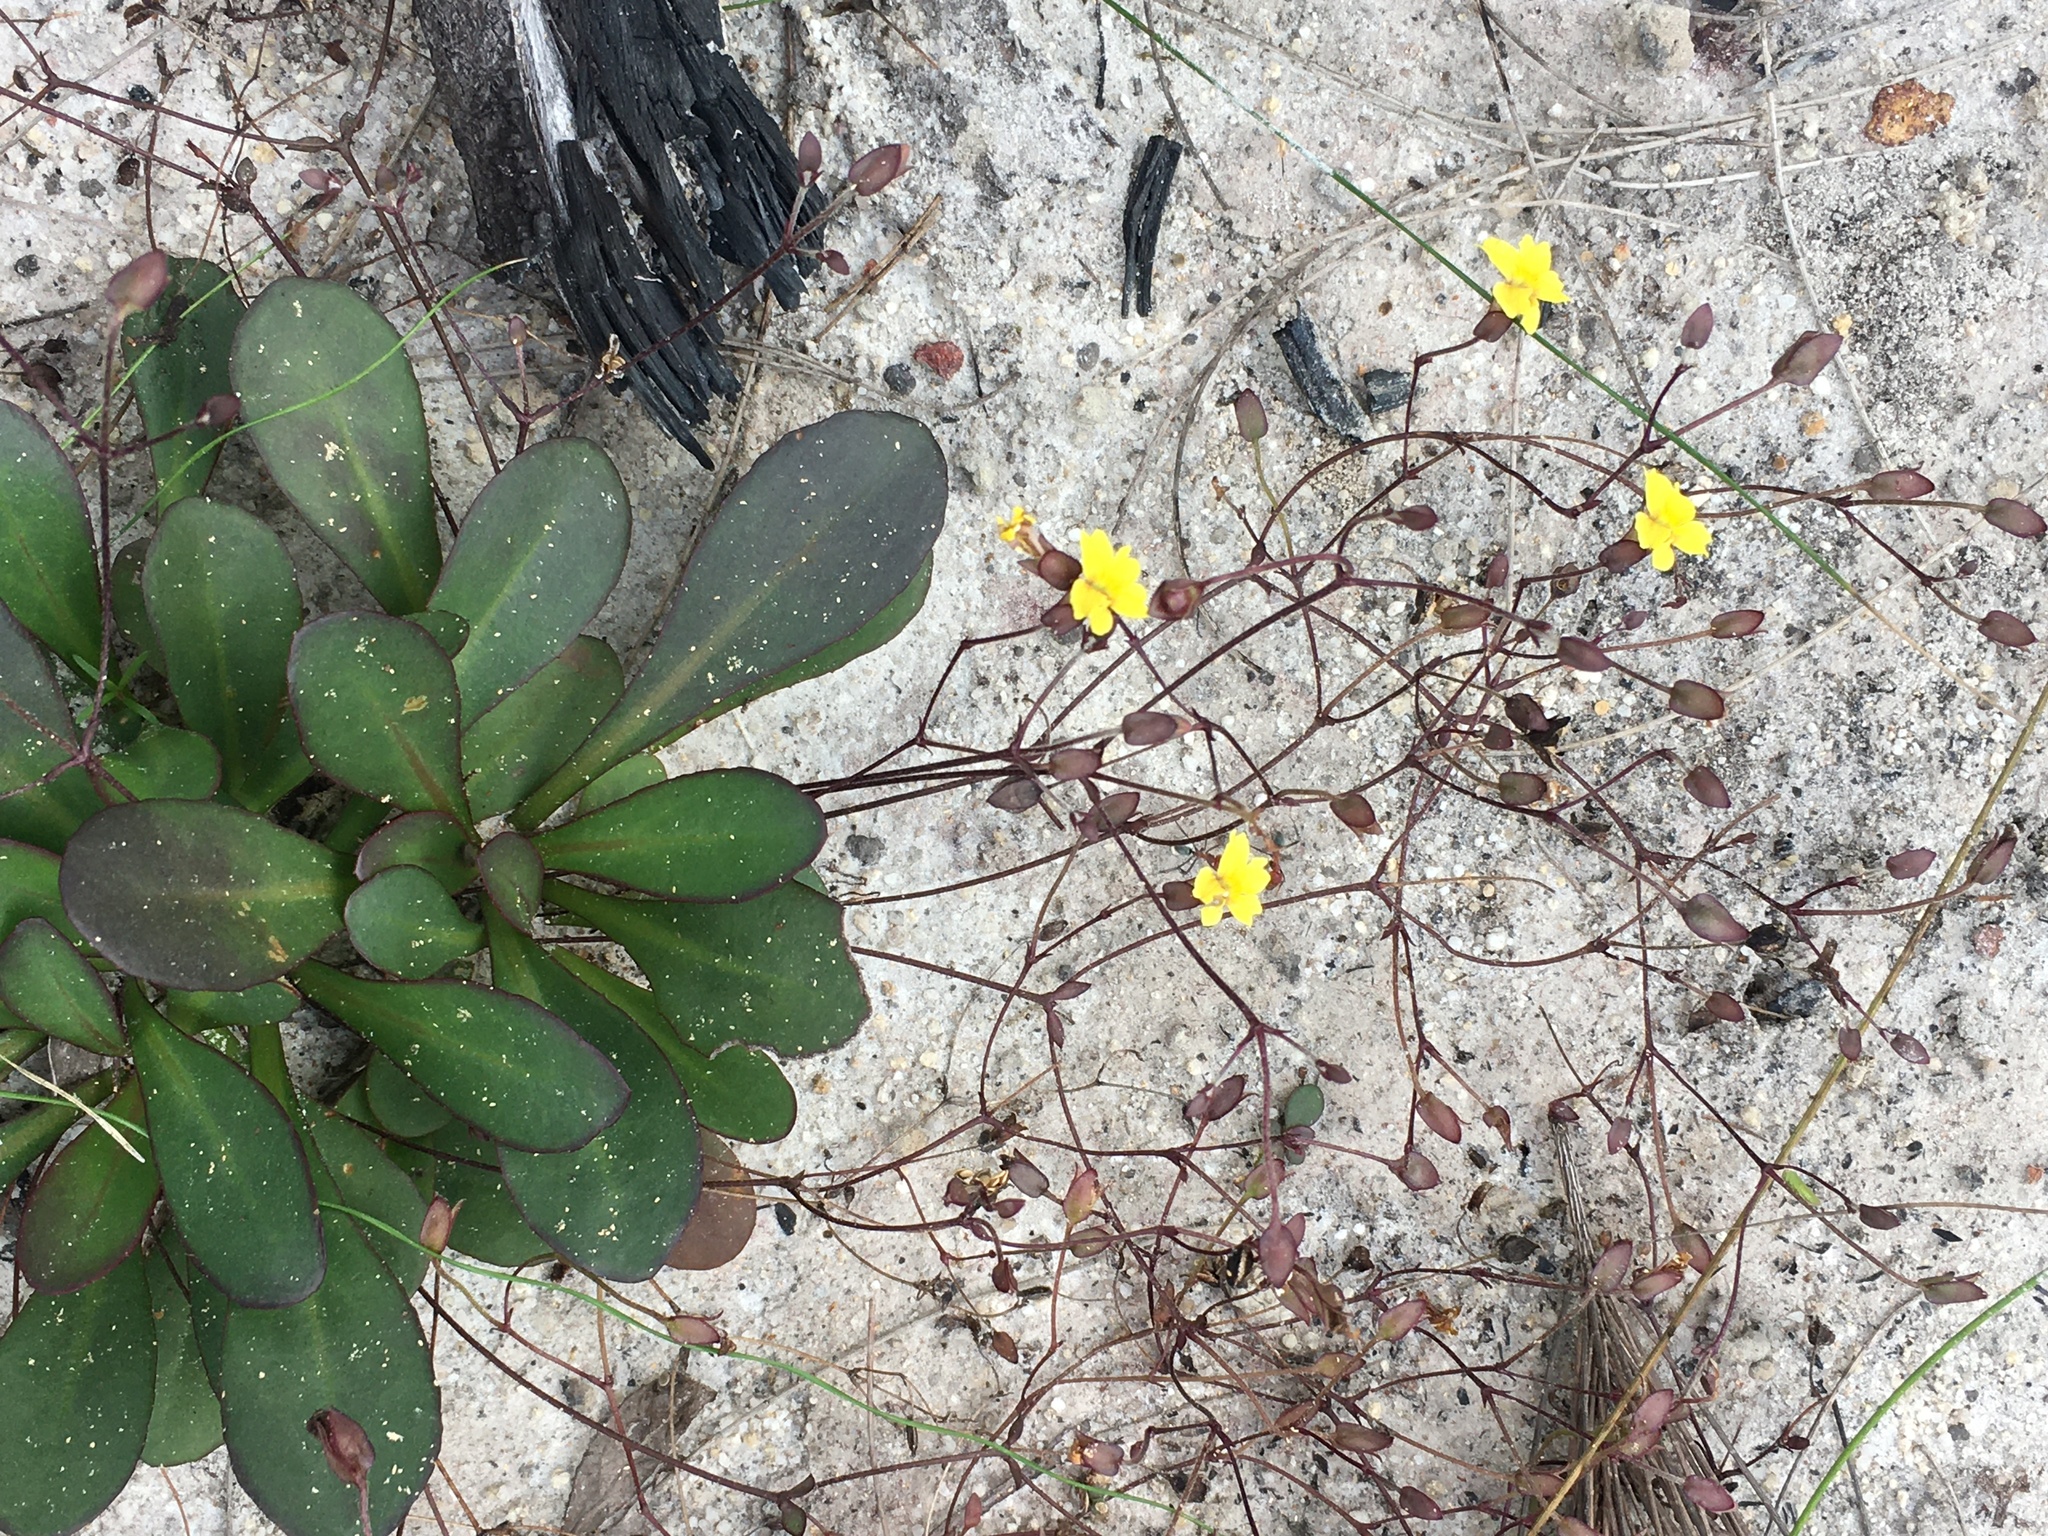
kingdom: Plantae
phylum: Tracheophyta
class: Magnoliopsida
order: Asterales
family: Goodeniaceae
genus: Goodenia
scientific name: Goodenia mystrophylla
